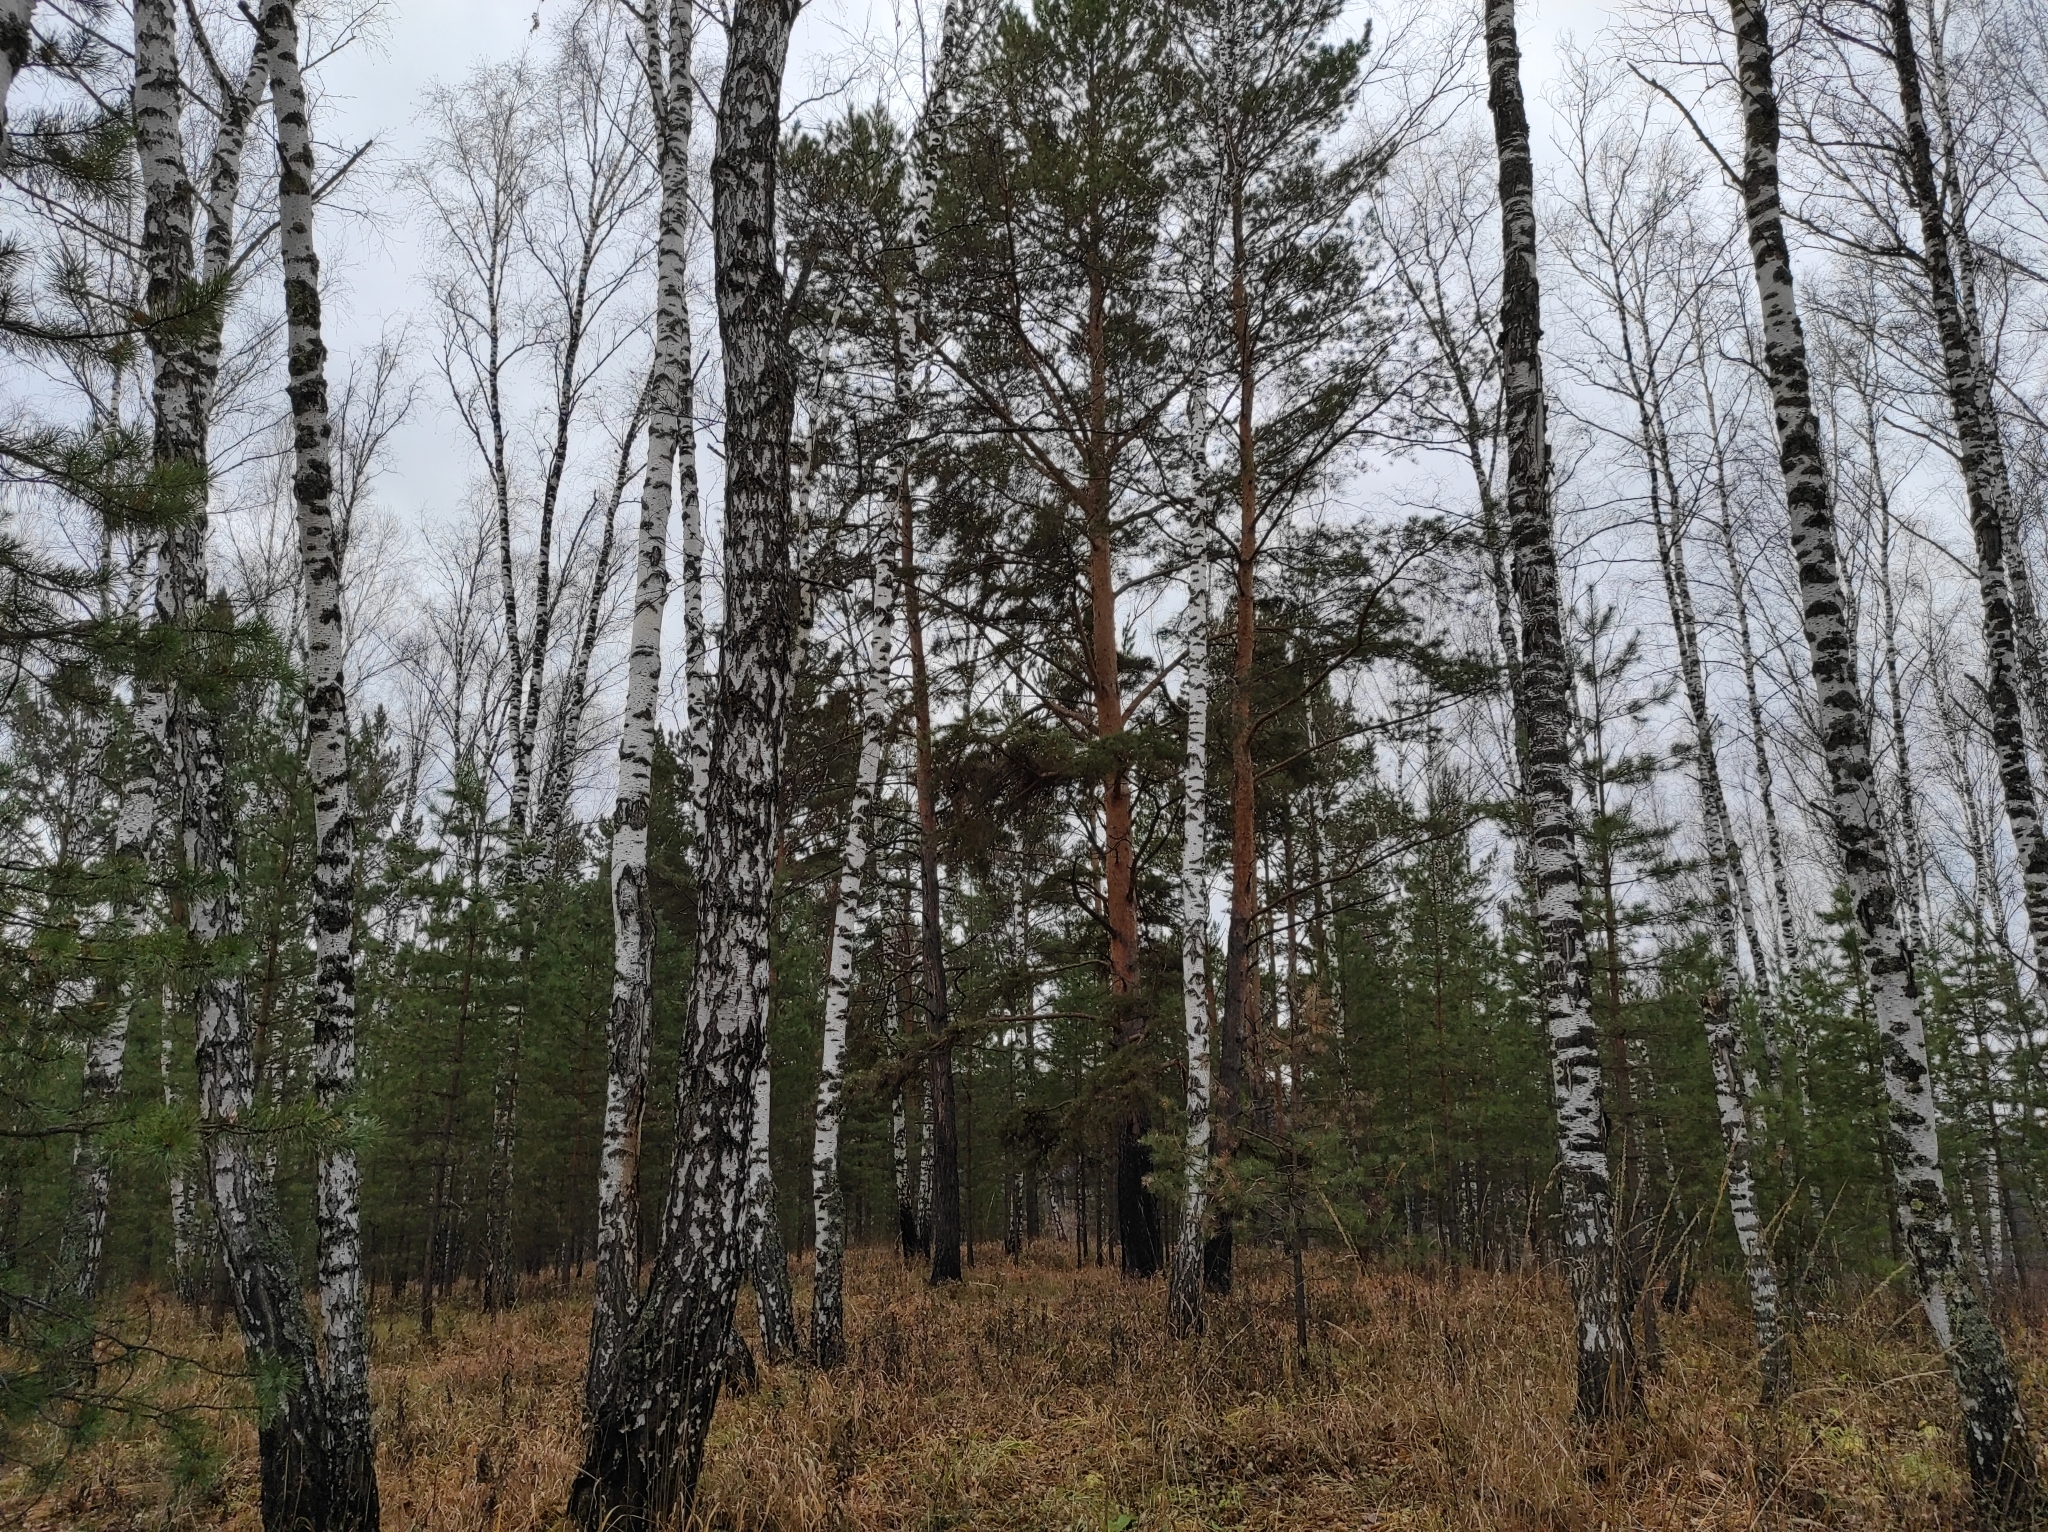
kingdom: Plantae
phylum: Tracheophyta
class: Pinopsida
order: Pinales
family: Pinaceae
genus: Pinus
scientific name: Pinus sylvestris
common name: Scots pine
